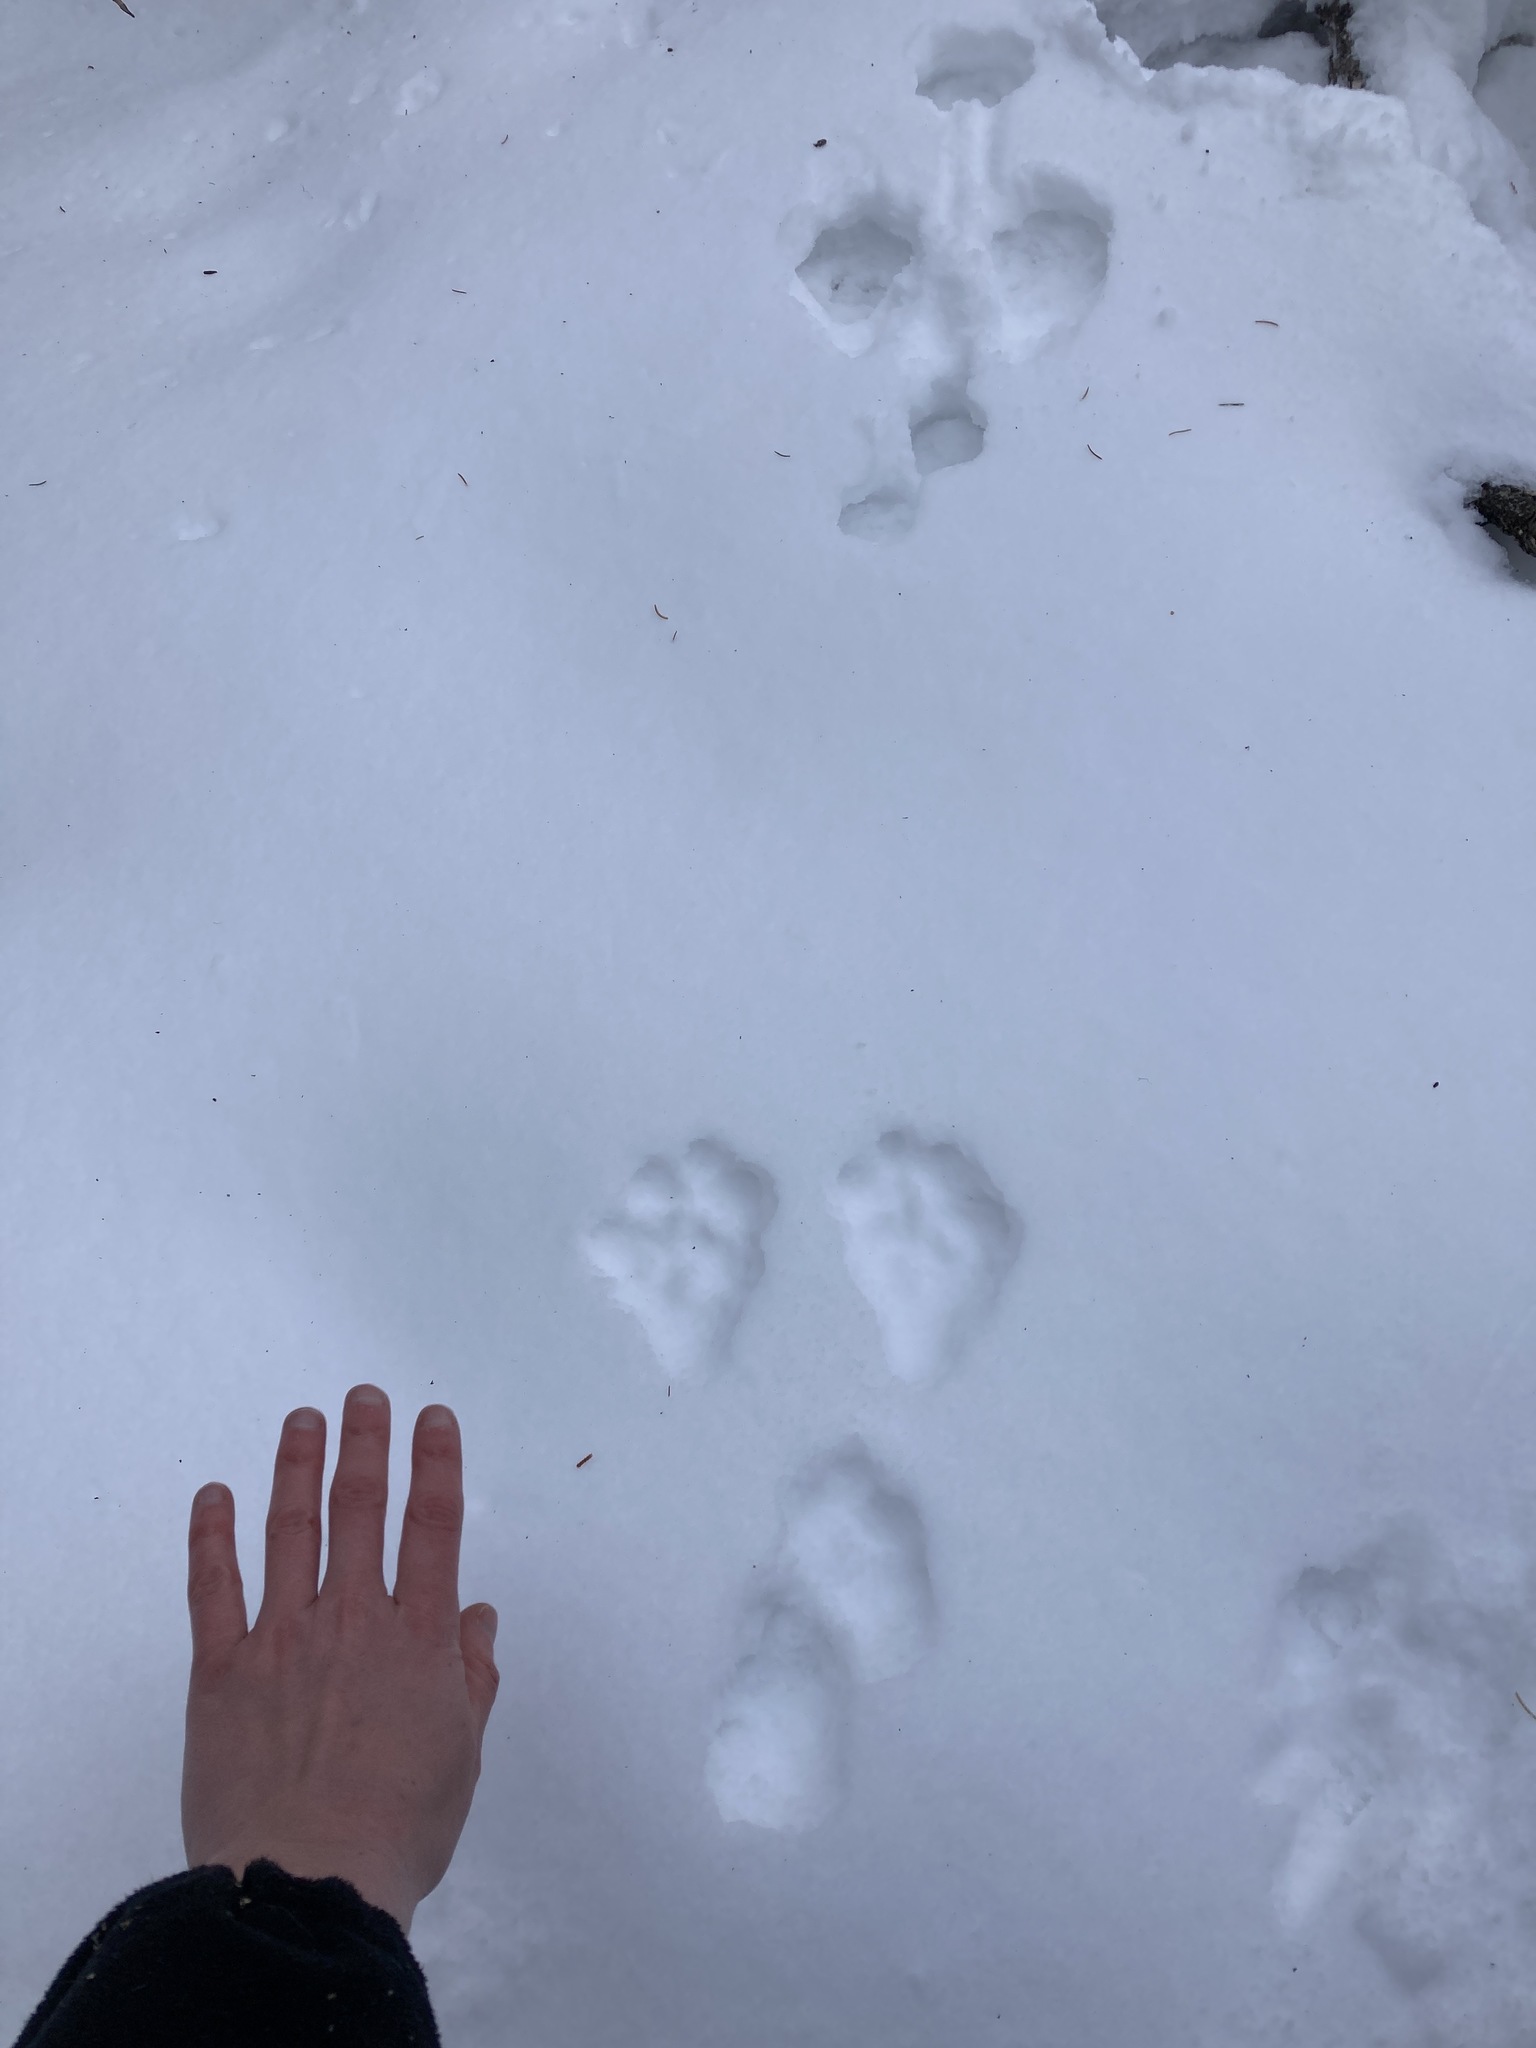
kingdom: Animalia
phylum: Chordata
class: Mammalia
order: Lagomorpha
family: Leporidae
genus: Lepus
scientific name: Lepus americanus
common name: Snowshoe hare
